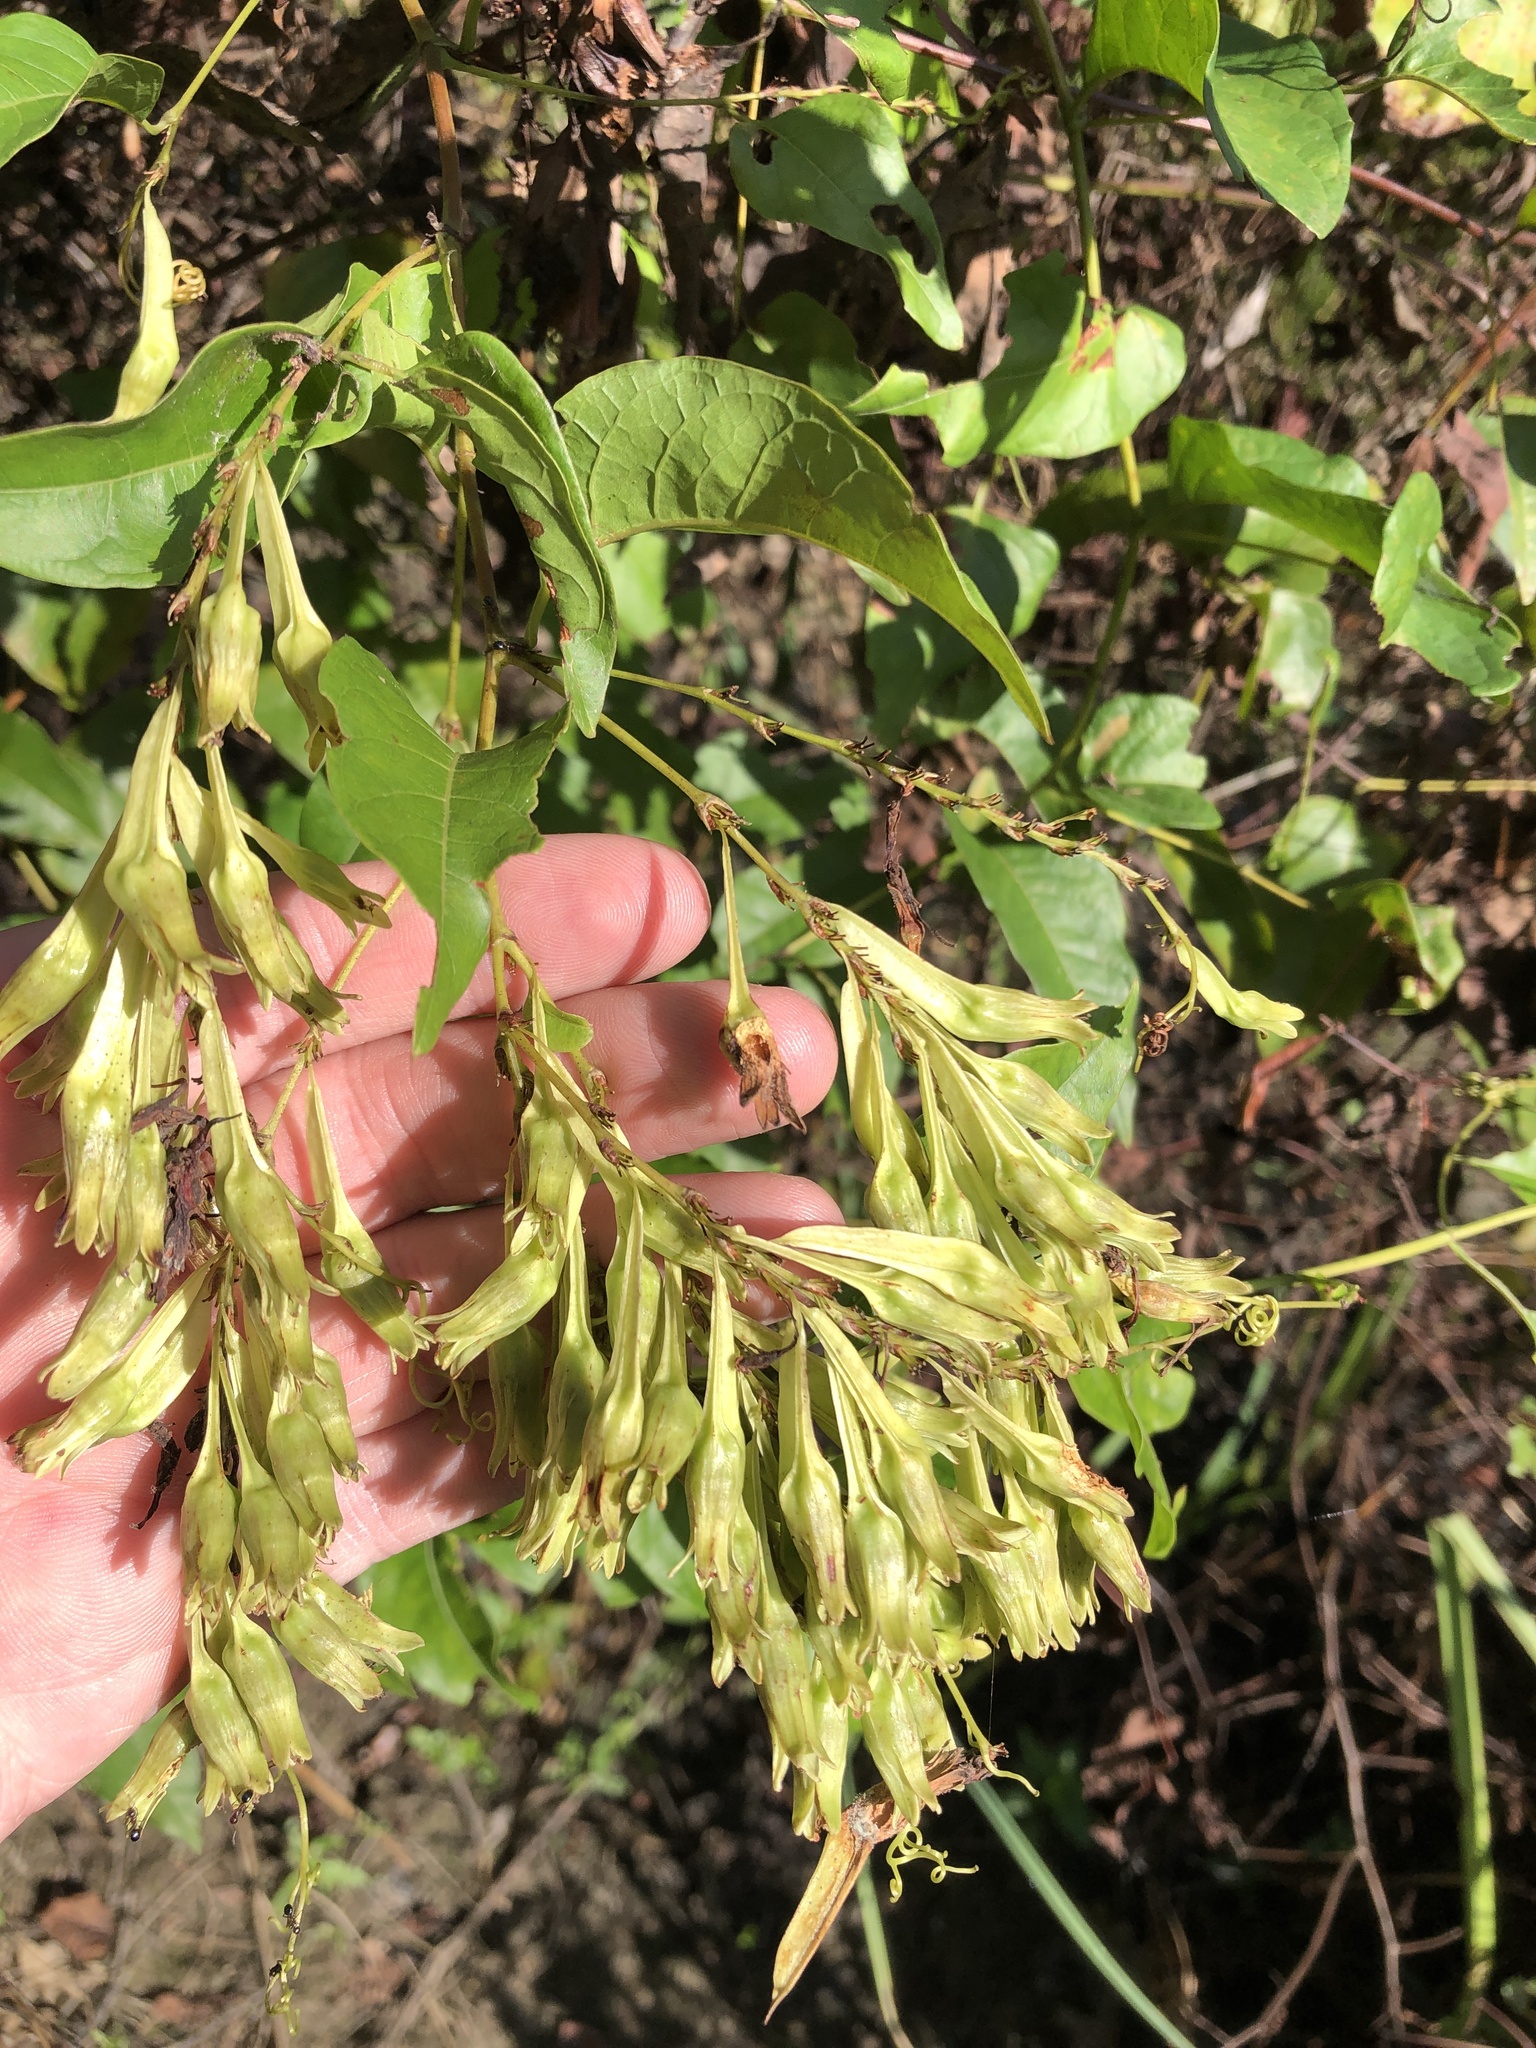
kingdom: Plantae
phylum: Tracheophyta
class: Magnoliopsida
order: Caryophyllales
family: Polygonaceae
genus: Brunnichia
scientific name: Brunnichia ovata
